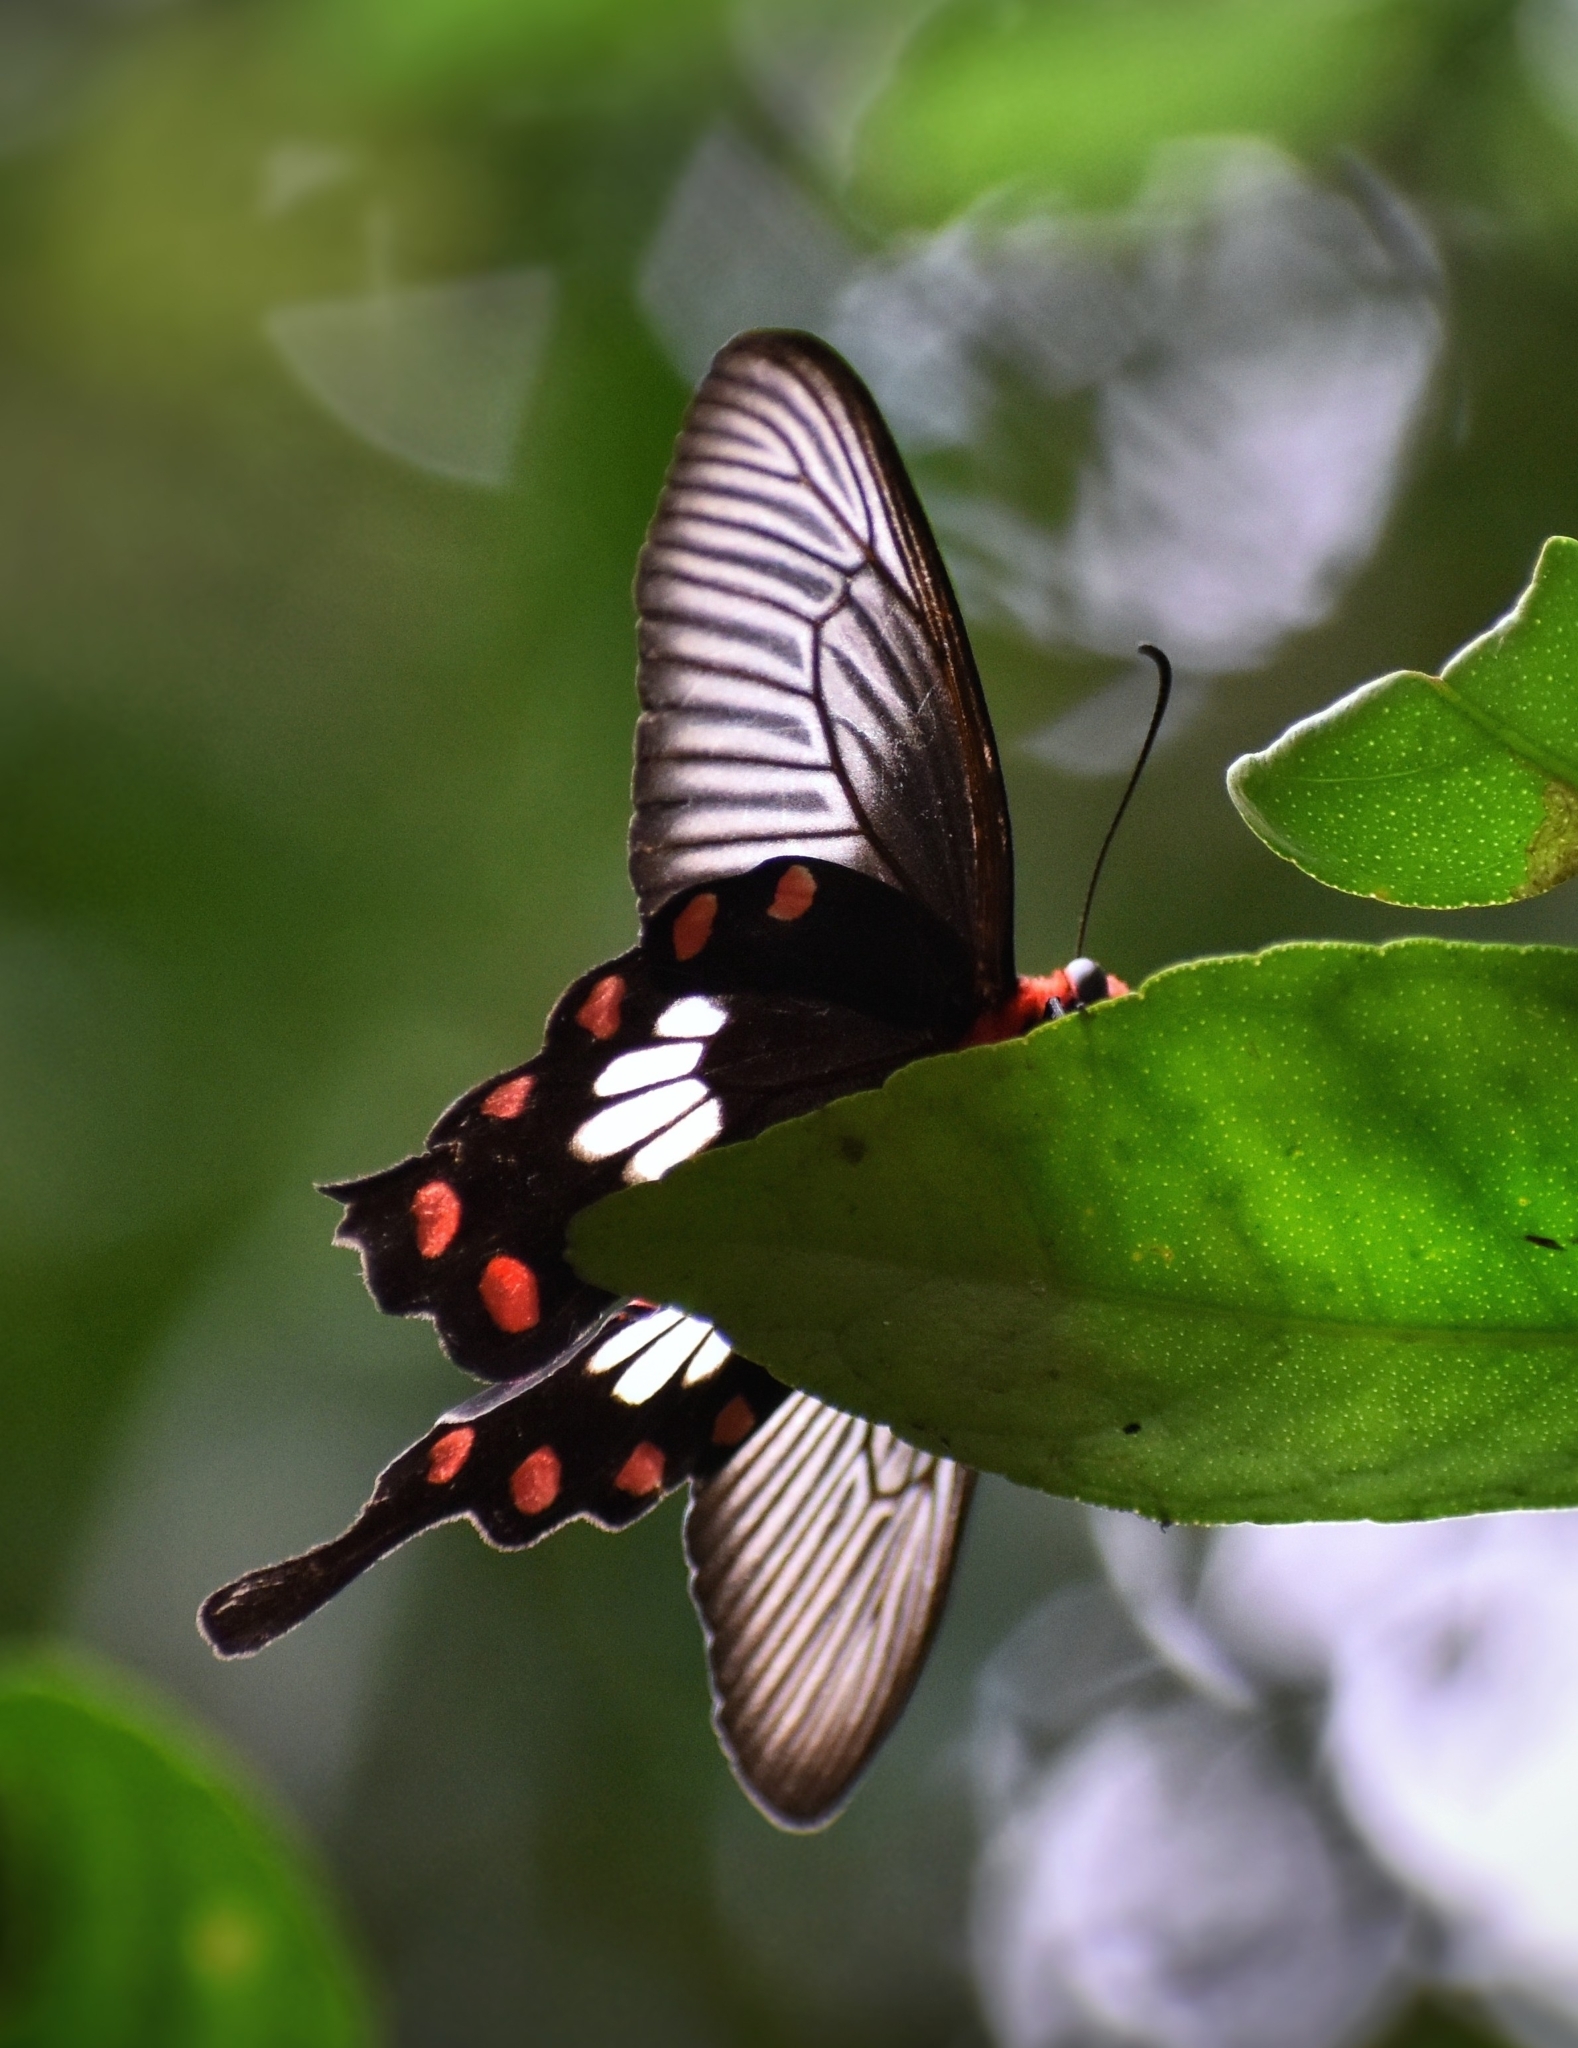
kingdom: Animalia
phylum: Arthropoda
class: Insecta
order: Lepidoptera
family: Papilionidae
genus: Pachliopta
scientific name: Pachliopta aristolochiae
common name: Common rose
